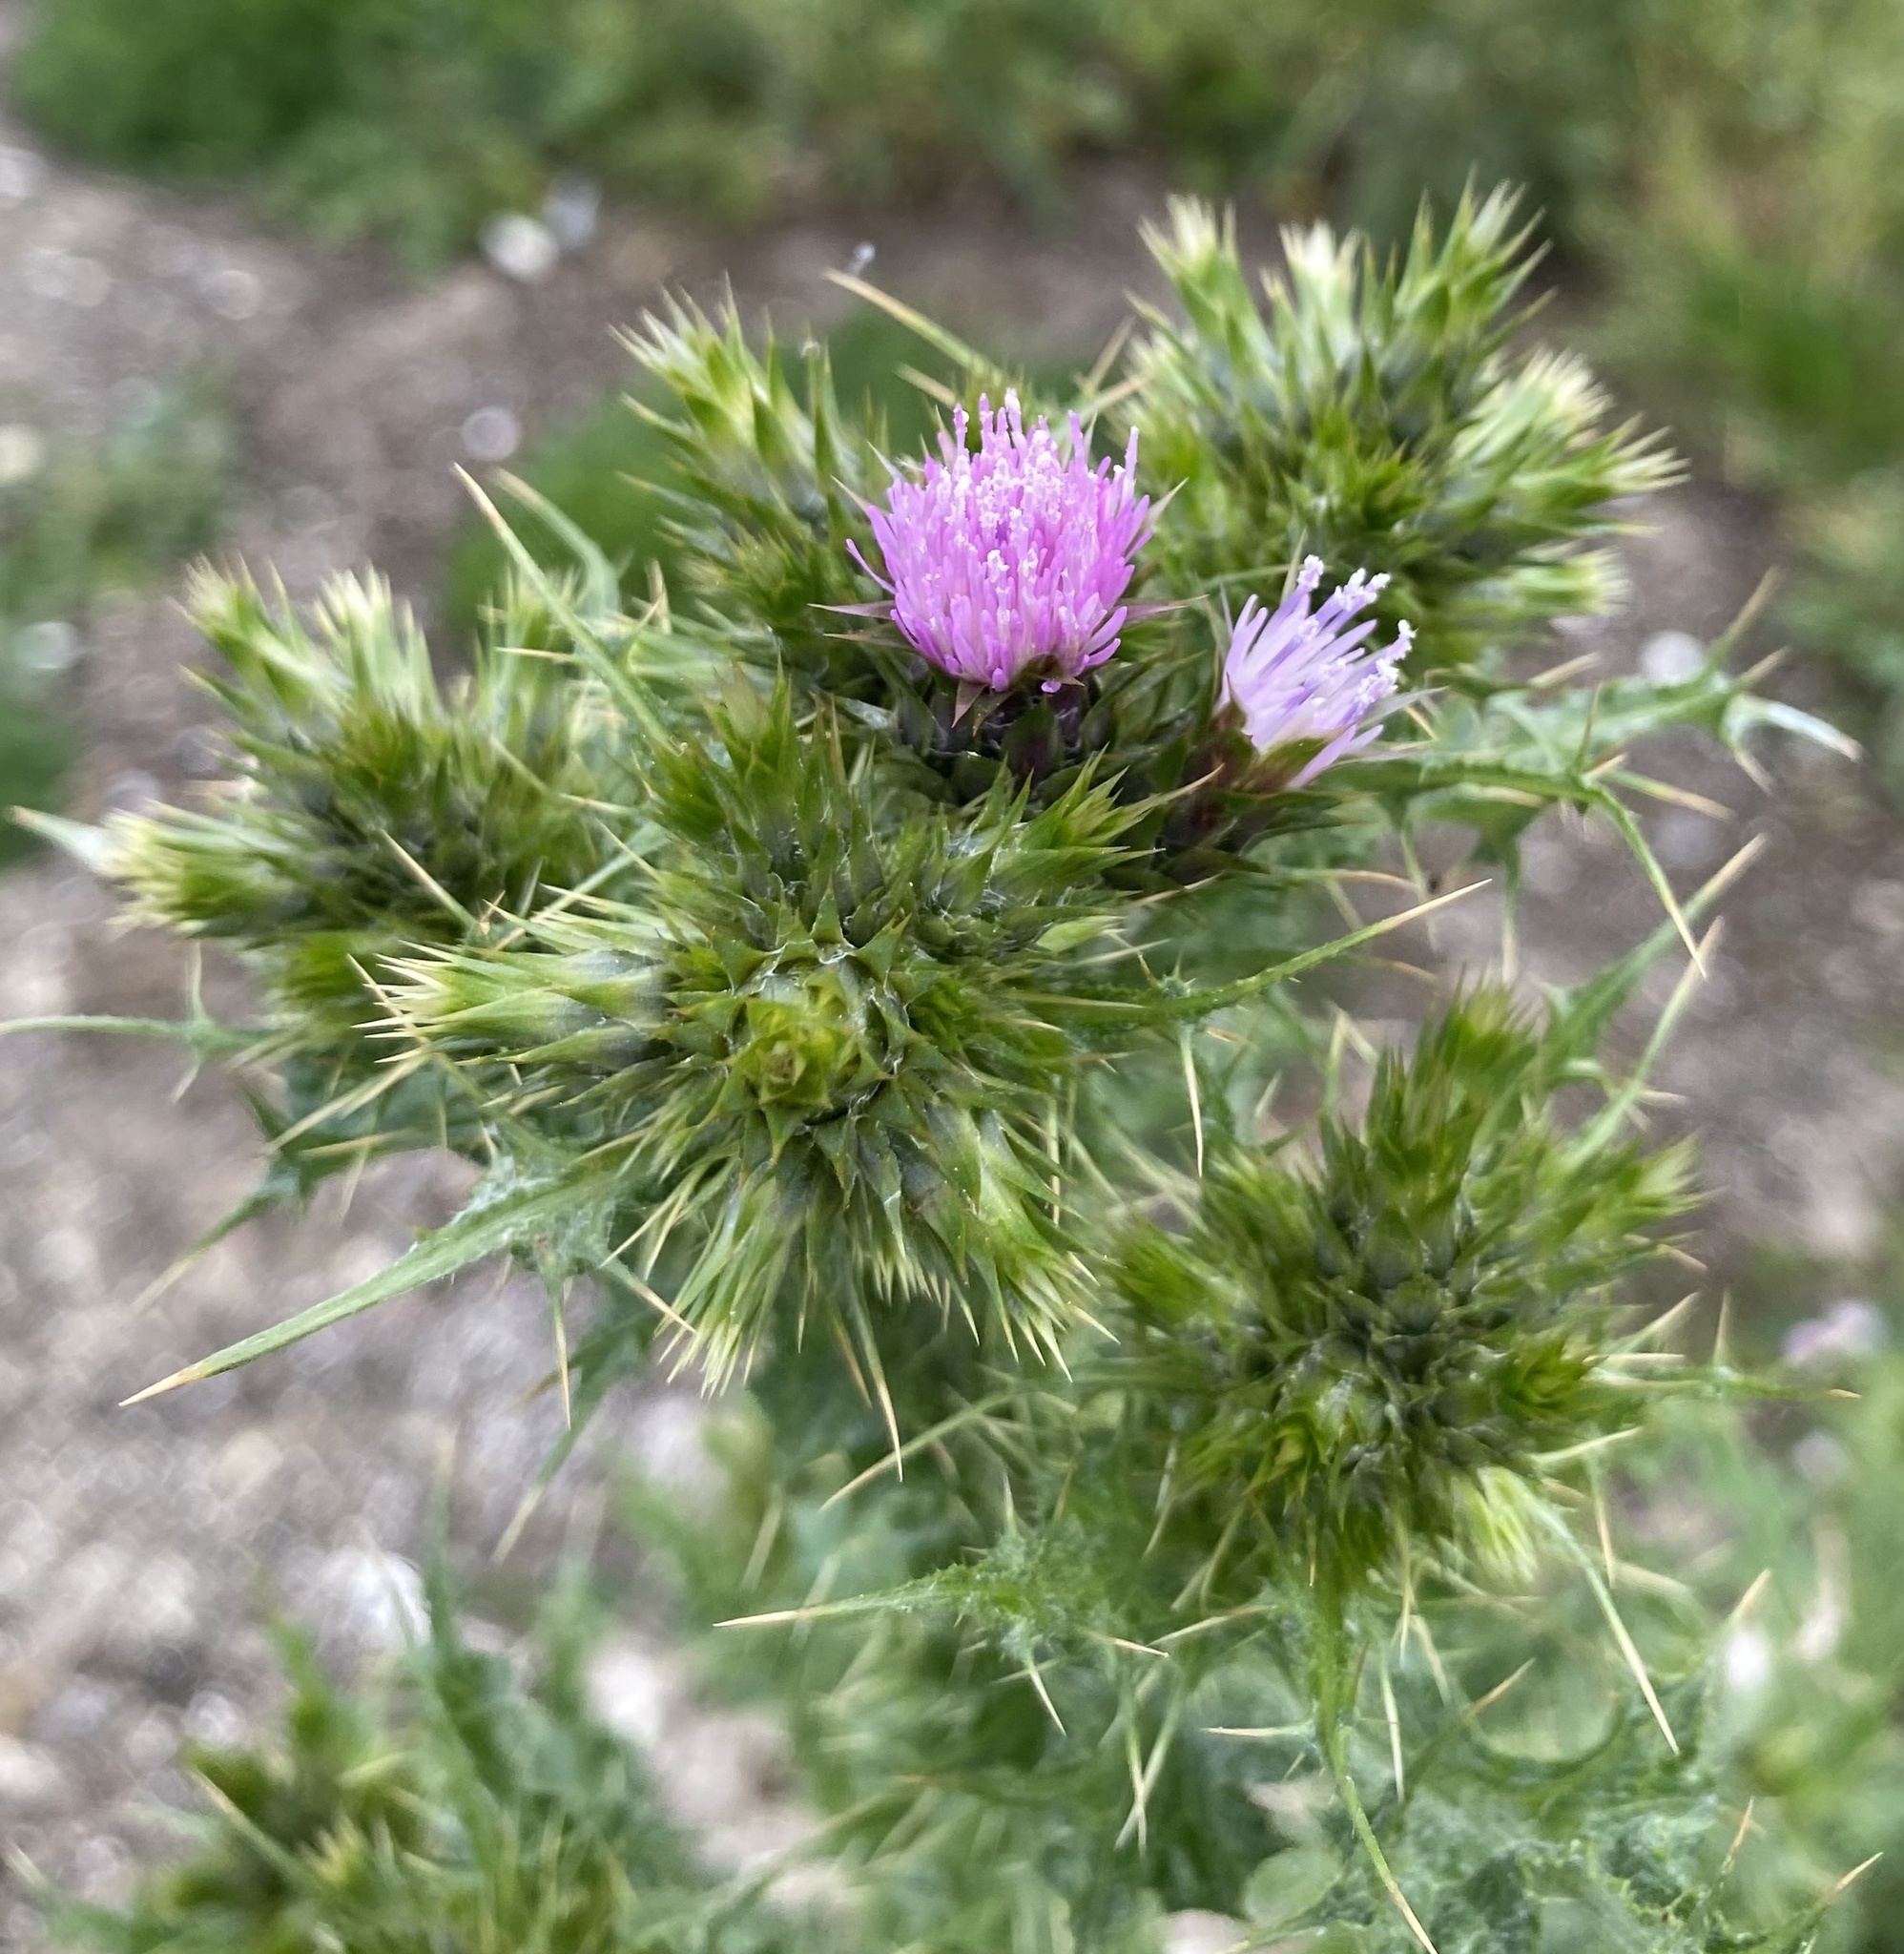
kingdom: Plantae
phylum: Tracheophyta
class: Magnoliopsida
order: Asterales
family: Asteraceae
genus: Carduus
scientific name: Carduus tenuiflorus
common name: Slender thistle
